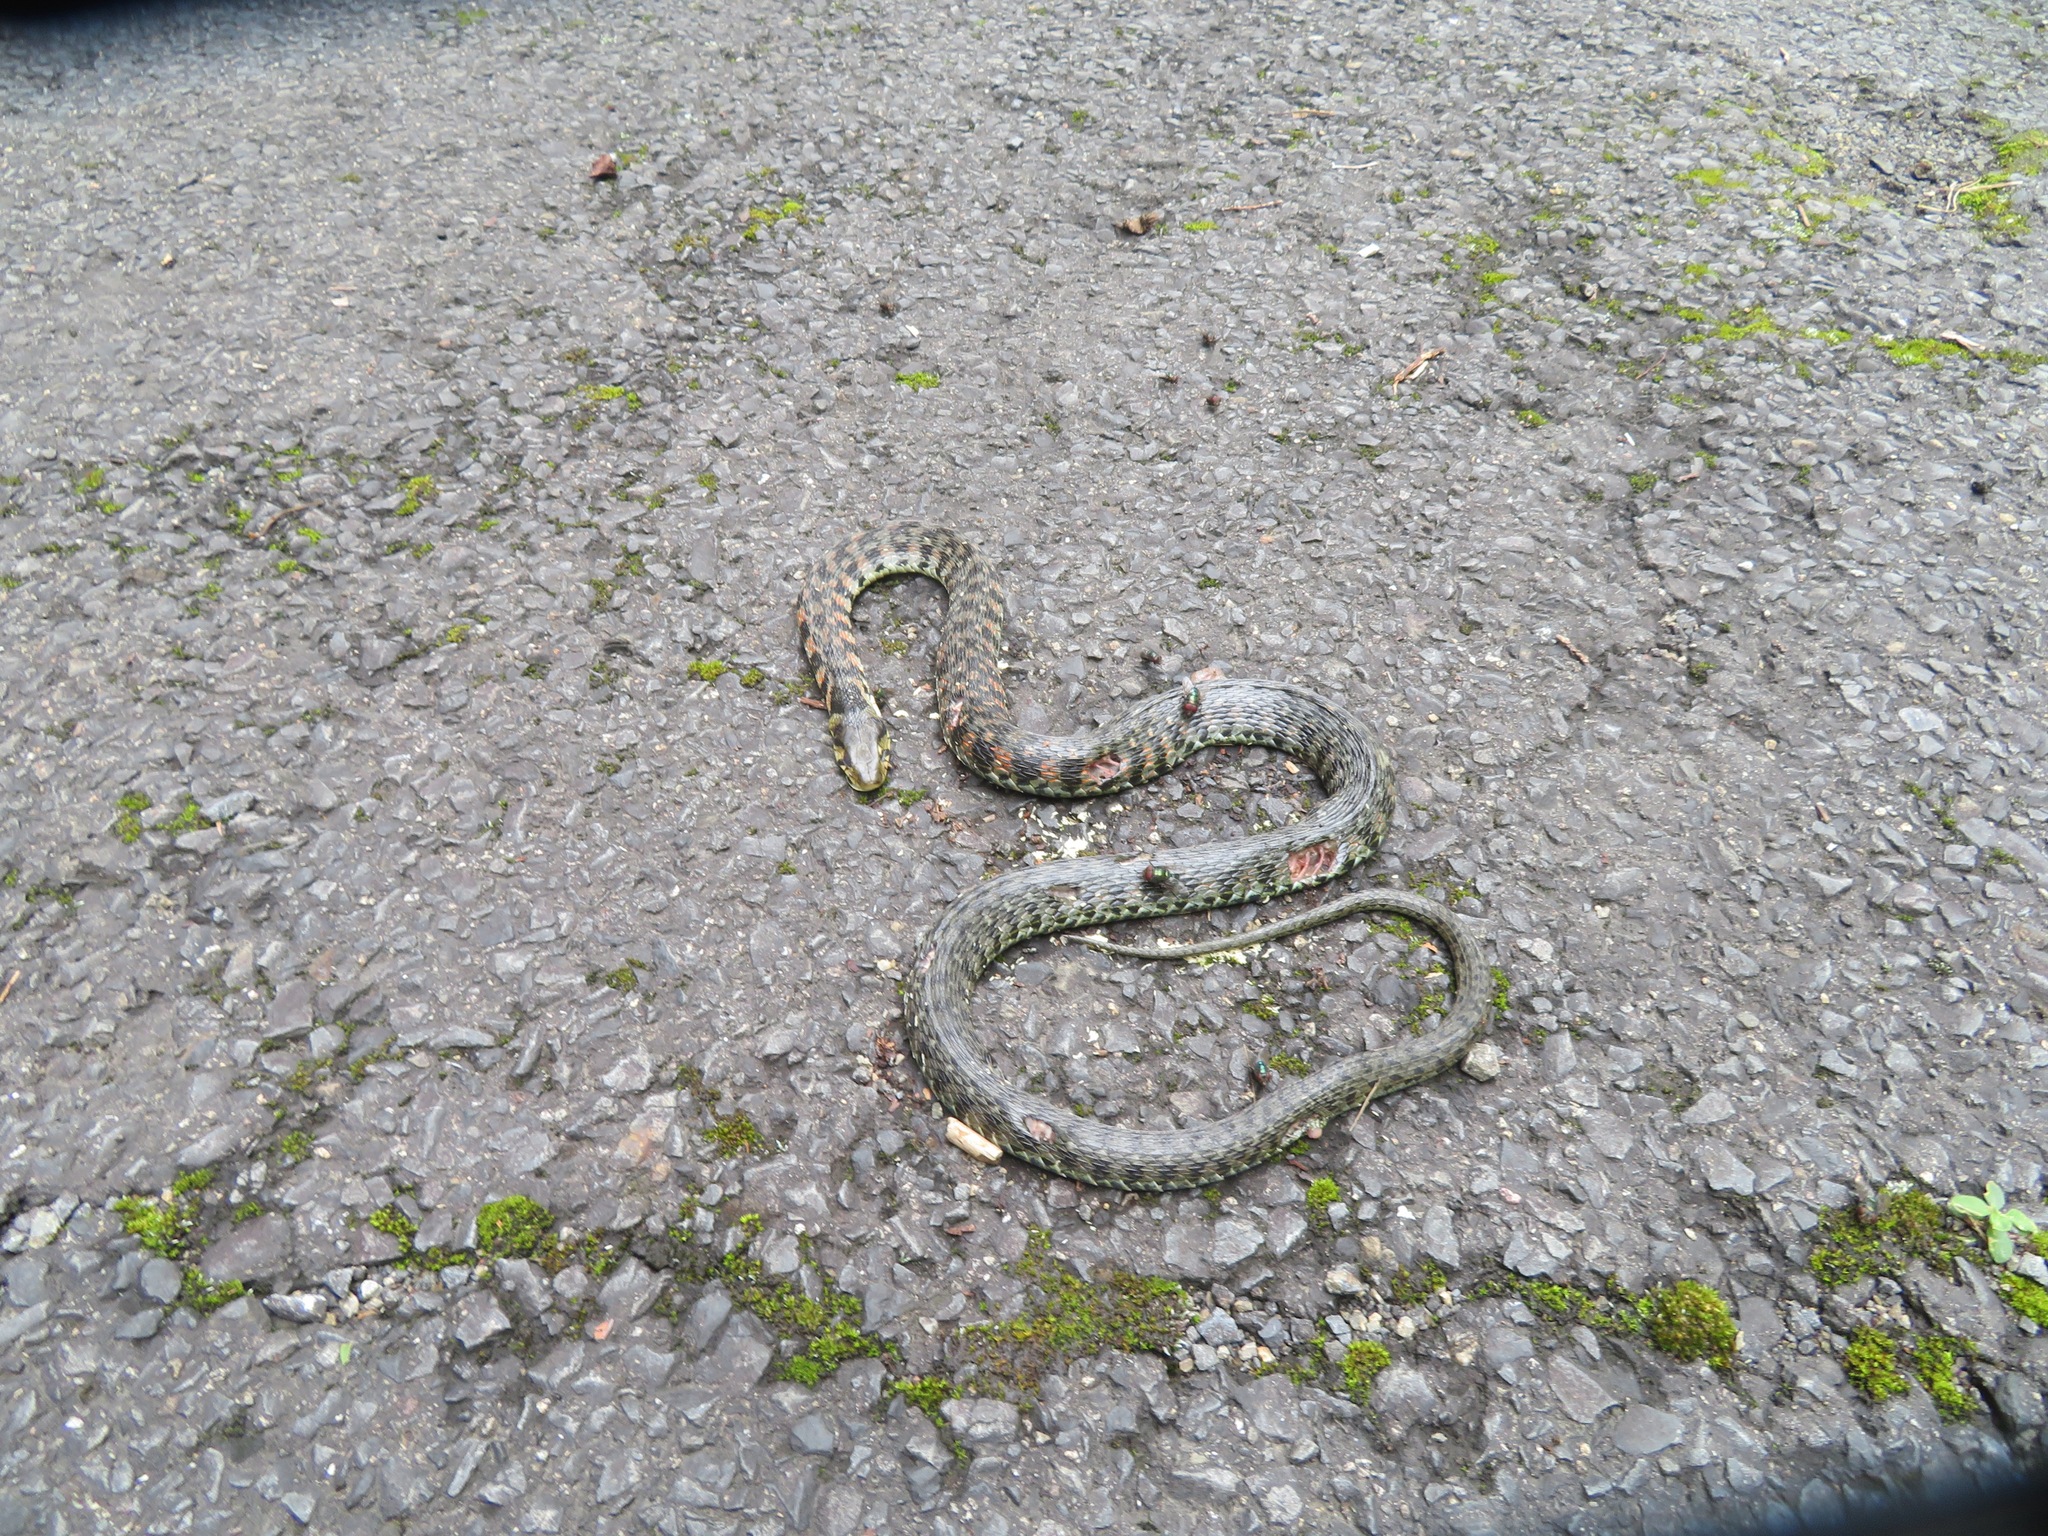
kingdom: Animalia
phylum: Chordata
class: Squamata
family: Colubridae
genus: Rhabdophis
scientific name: Rhabdophis tigrinus
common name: Tiger keelback
